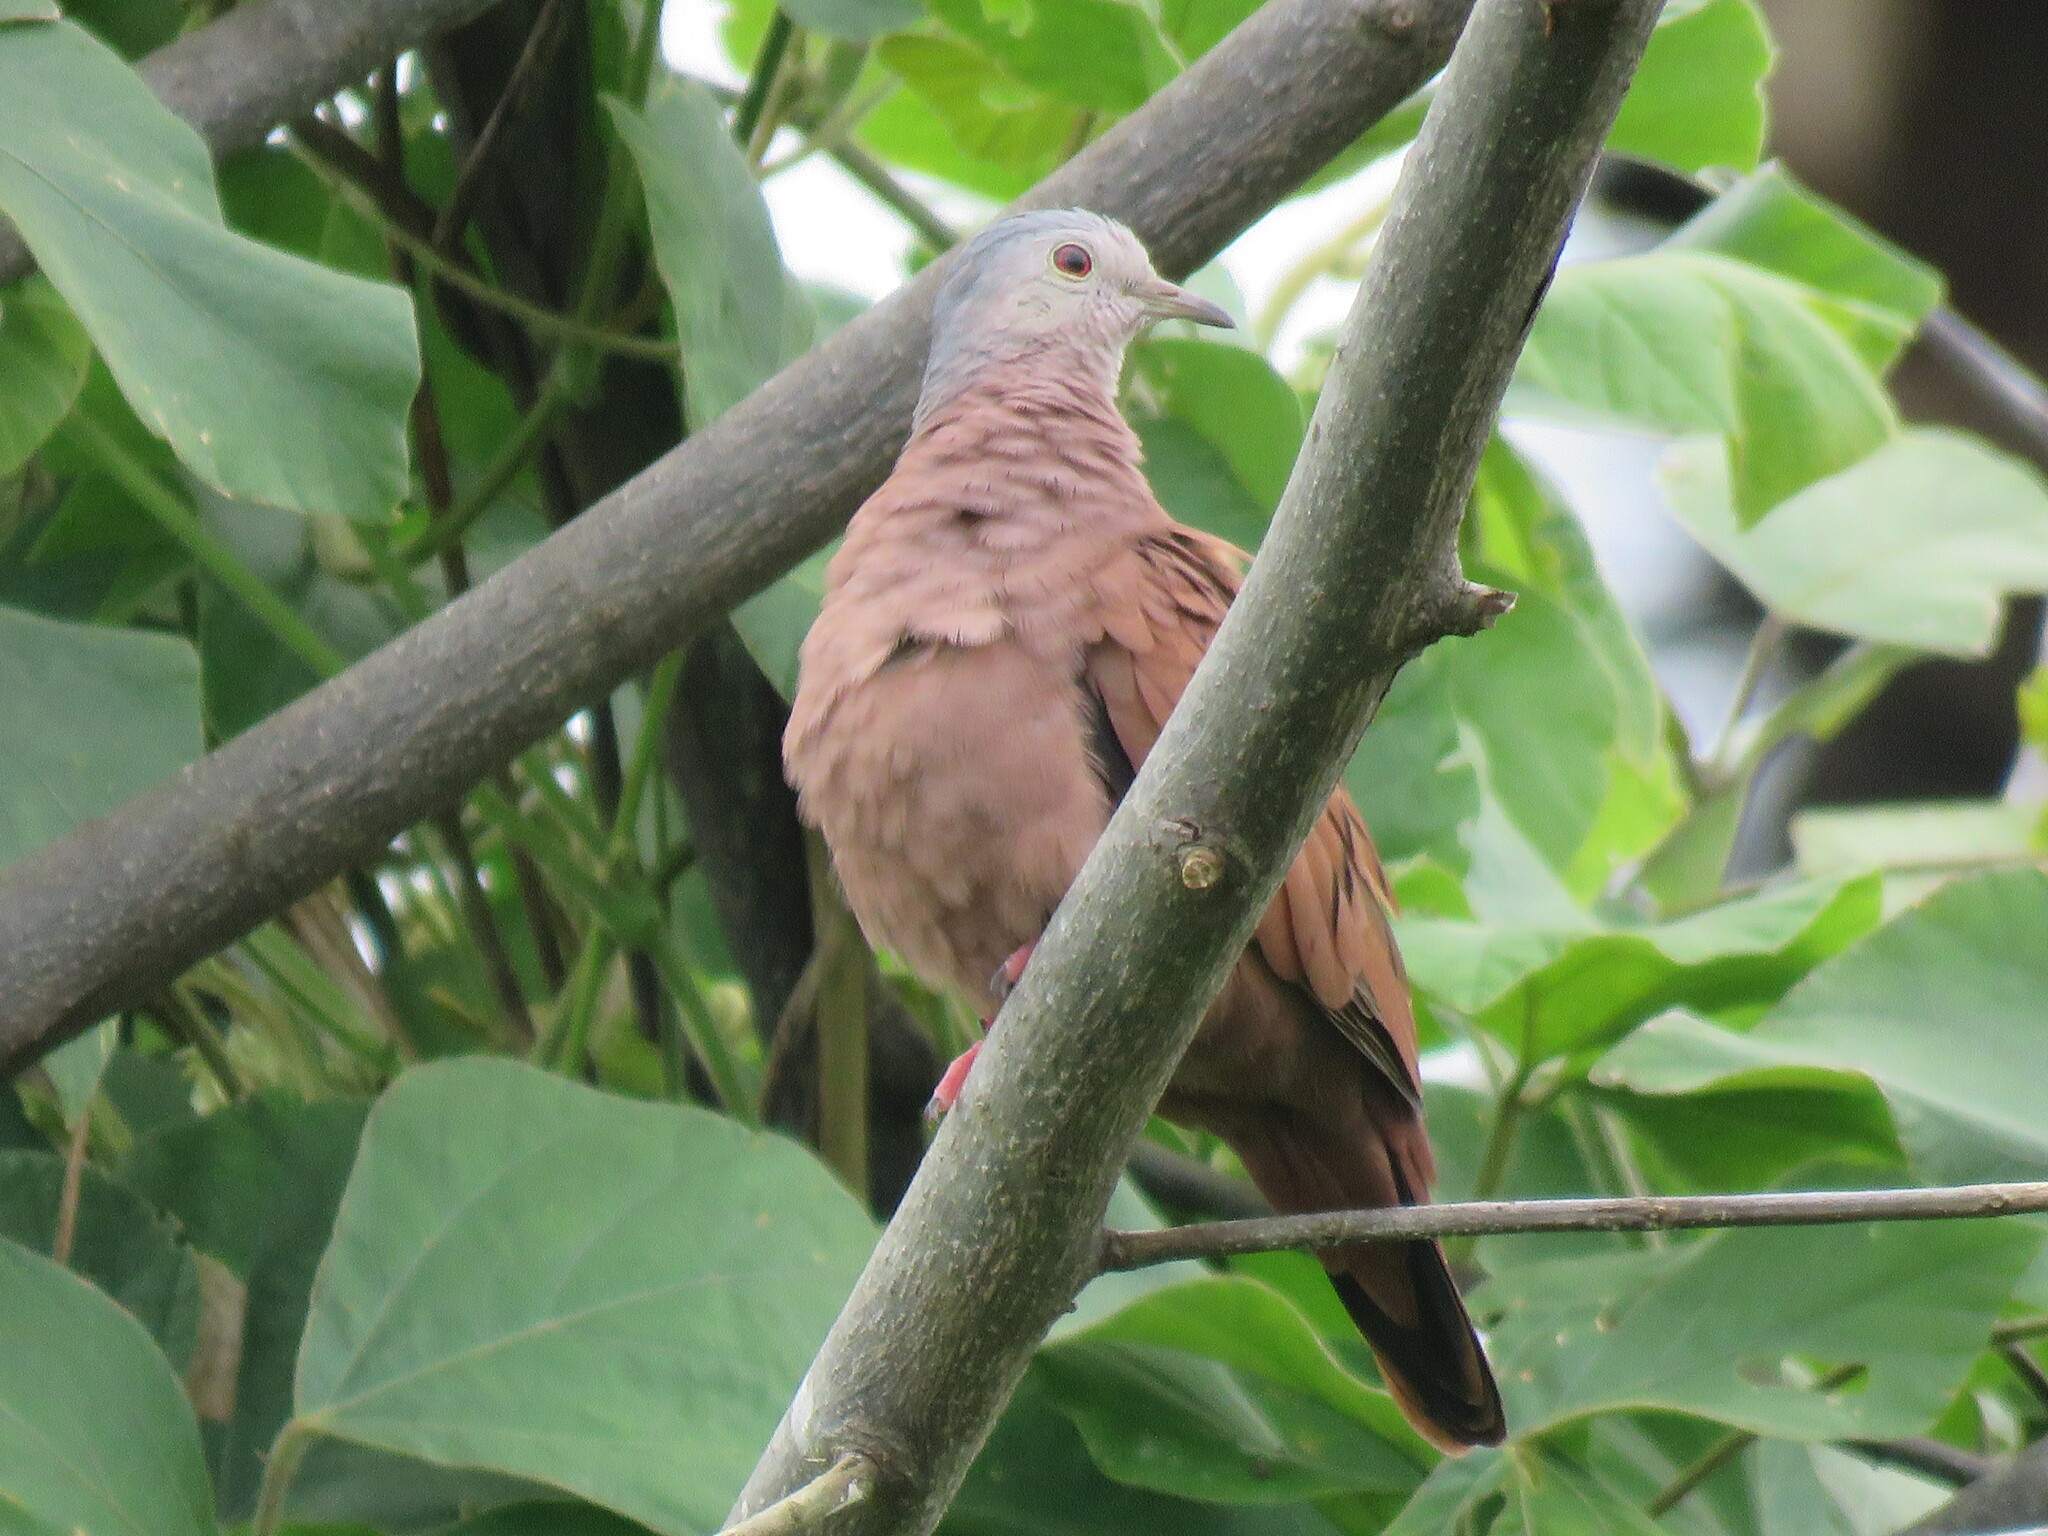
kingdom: Animalia
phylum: Chordata
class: Aves
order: Columbiformes
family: Columbidae
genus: Columbina
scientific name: Columbina talpacoti
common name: Ruddy ground dove
